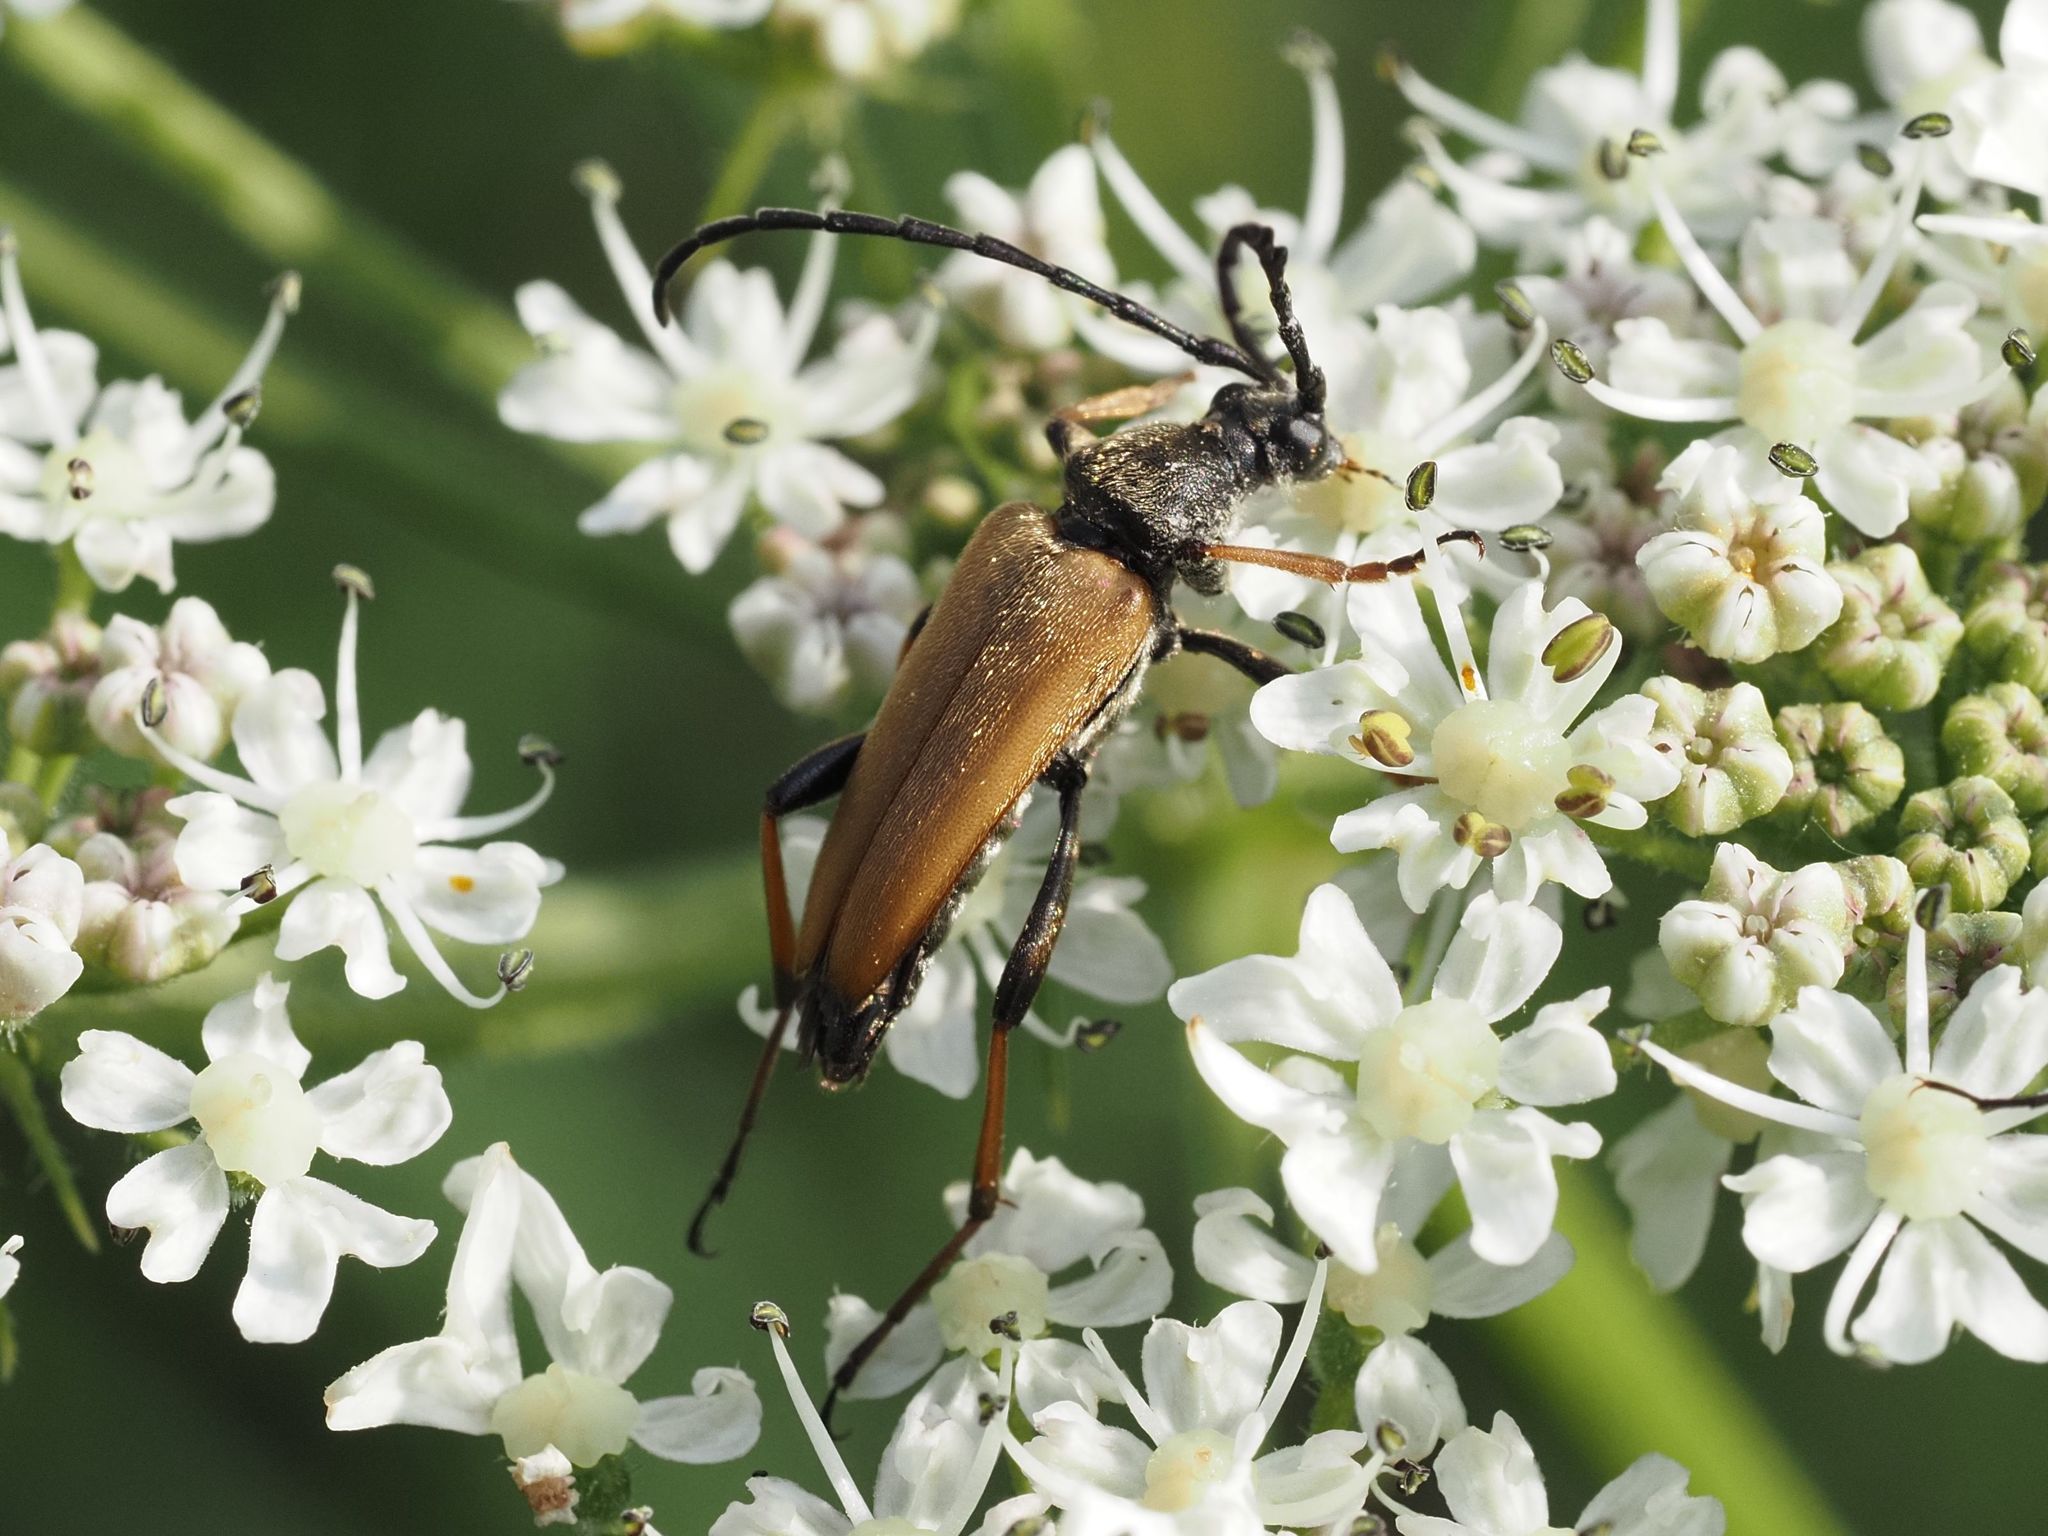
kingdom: Animalia
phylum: Arthropoda
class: Insecta
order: Coleoptera
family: Cerambycidae
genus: Stictoleptura
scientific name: Stictoleptura rubra
